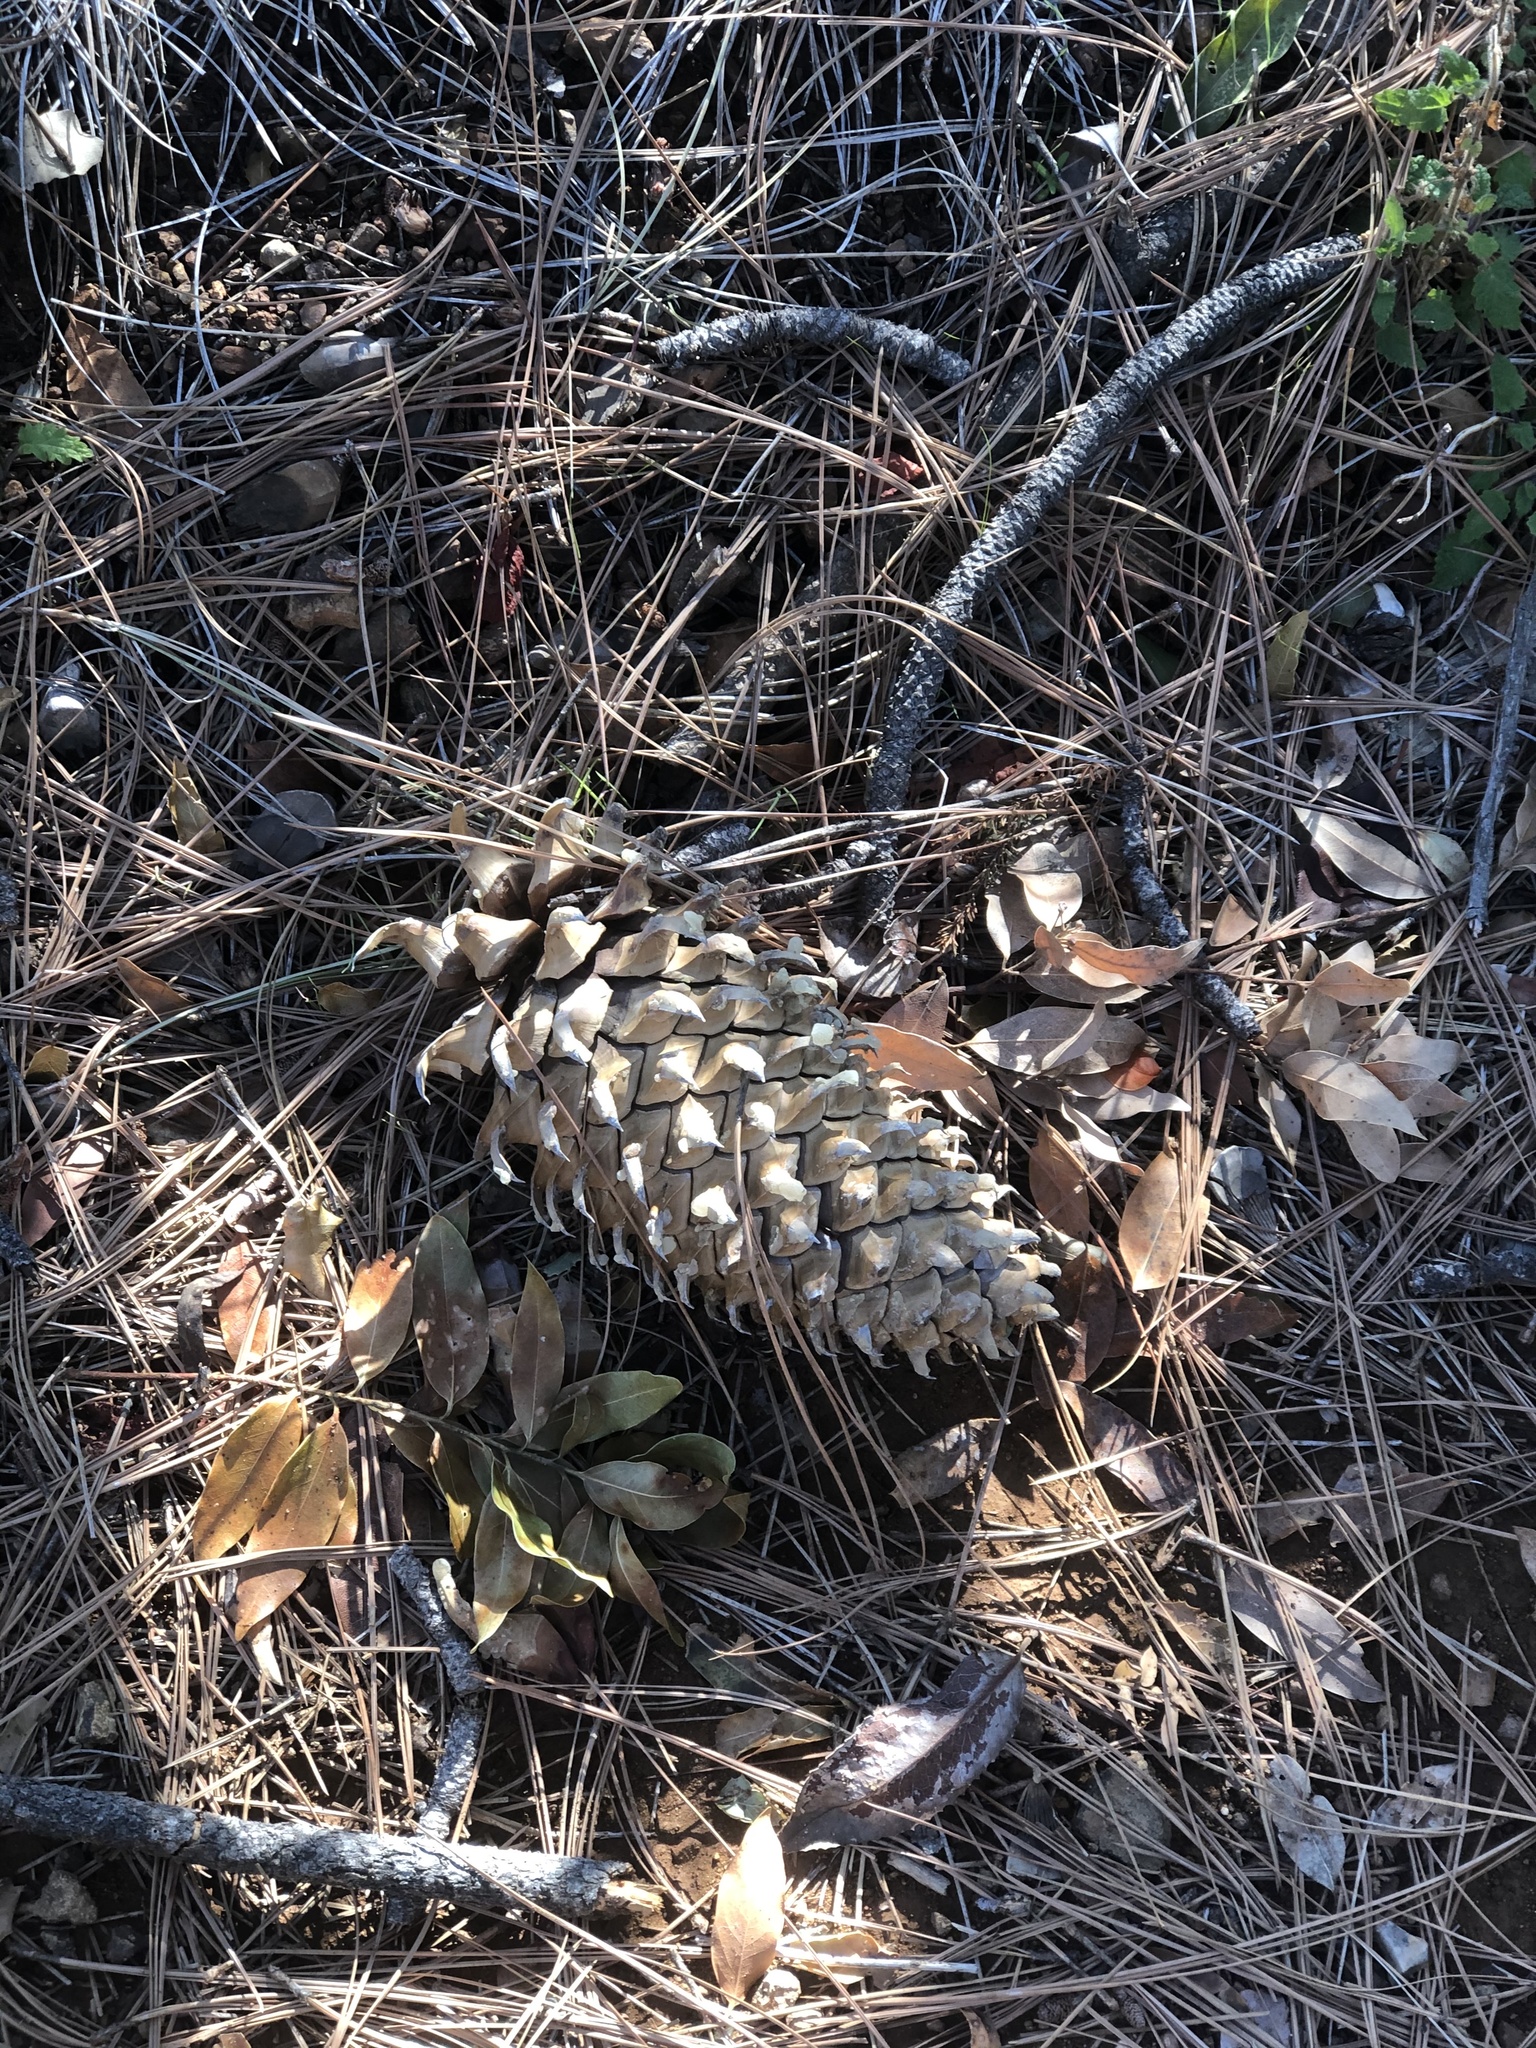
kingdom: Plantae
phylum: Tracheophyta
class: Pinopsida
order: Pinales
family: Pinaceae
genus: Pinus
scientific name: Pinus coulteri
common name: Coulter pine
